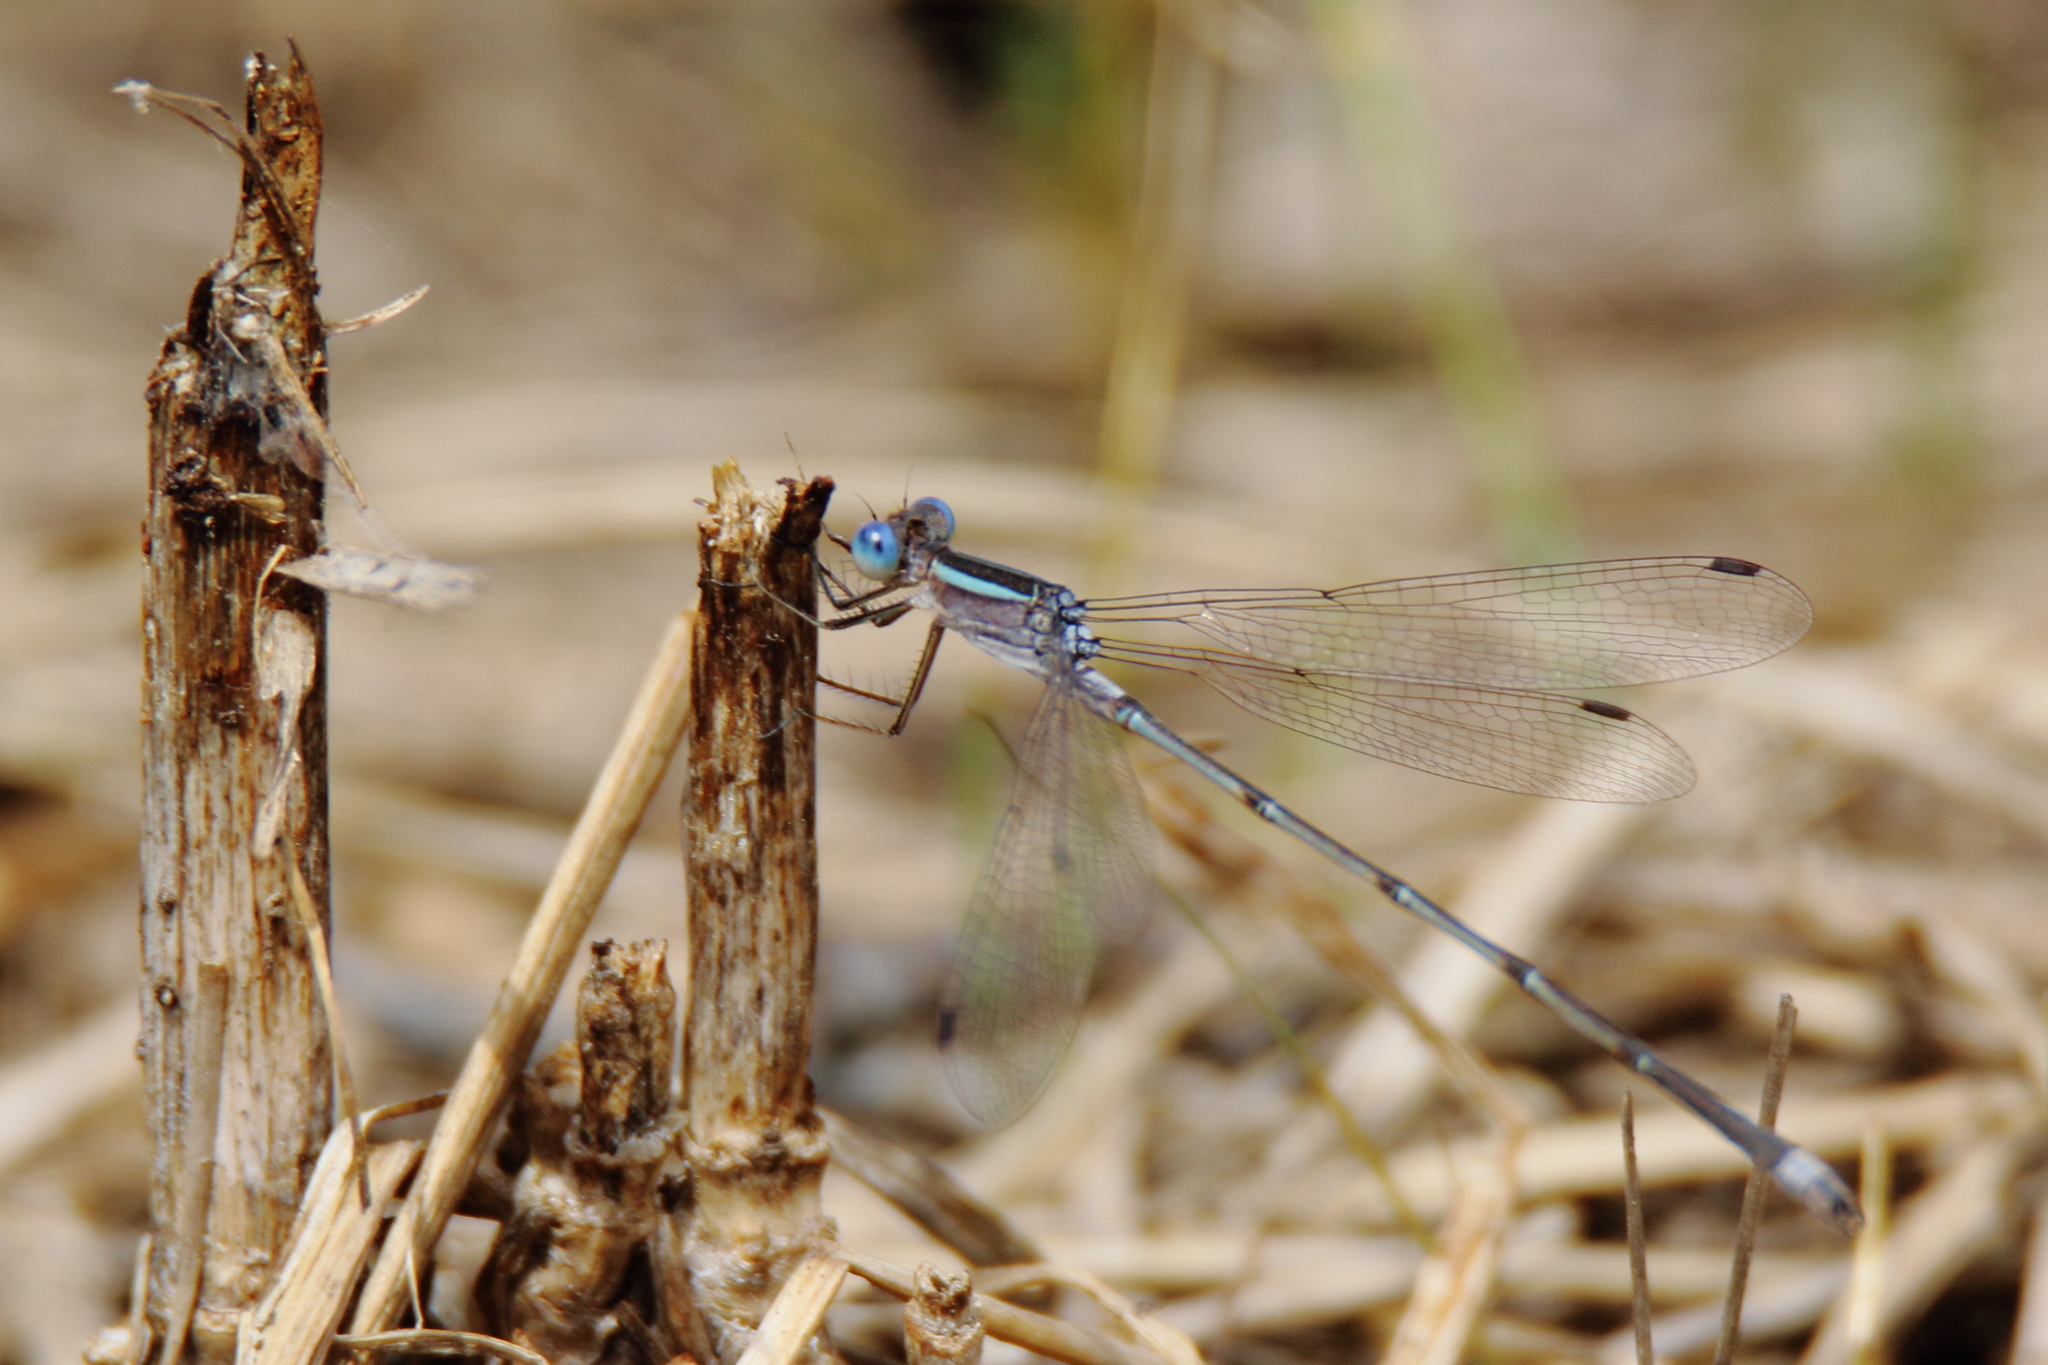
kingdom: Animalia
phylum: Arthropoda
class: Insecta
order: Odonata
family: Lestidae
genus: Lestes
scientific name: Lestes alacer
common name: Plateau spreadwing
